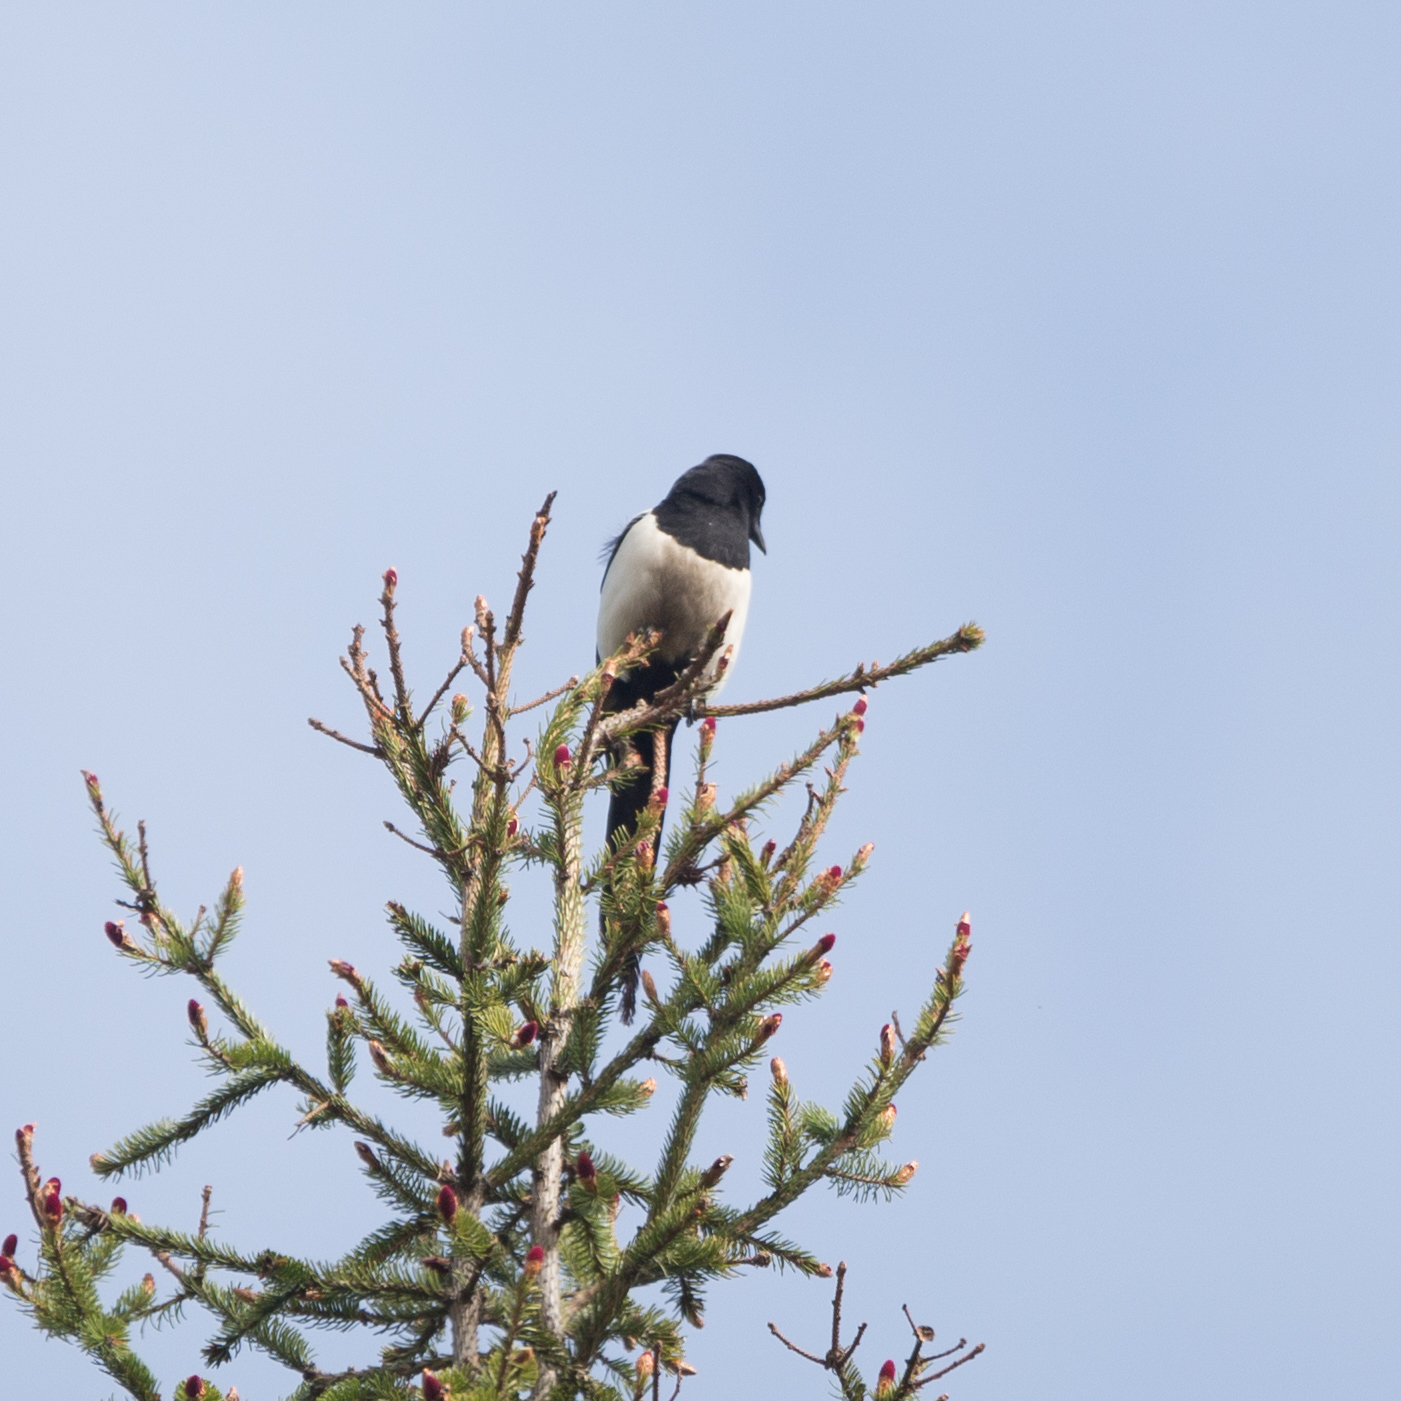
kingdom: Animalia
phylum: Chordata
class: Aves
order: Passeriformes
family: Corvidae
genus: Pica
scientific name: Pica pica
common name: Eurasian magpie
